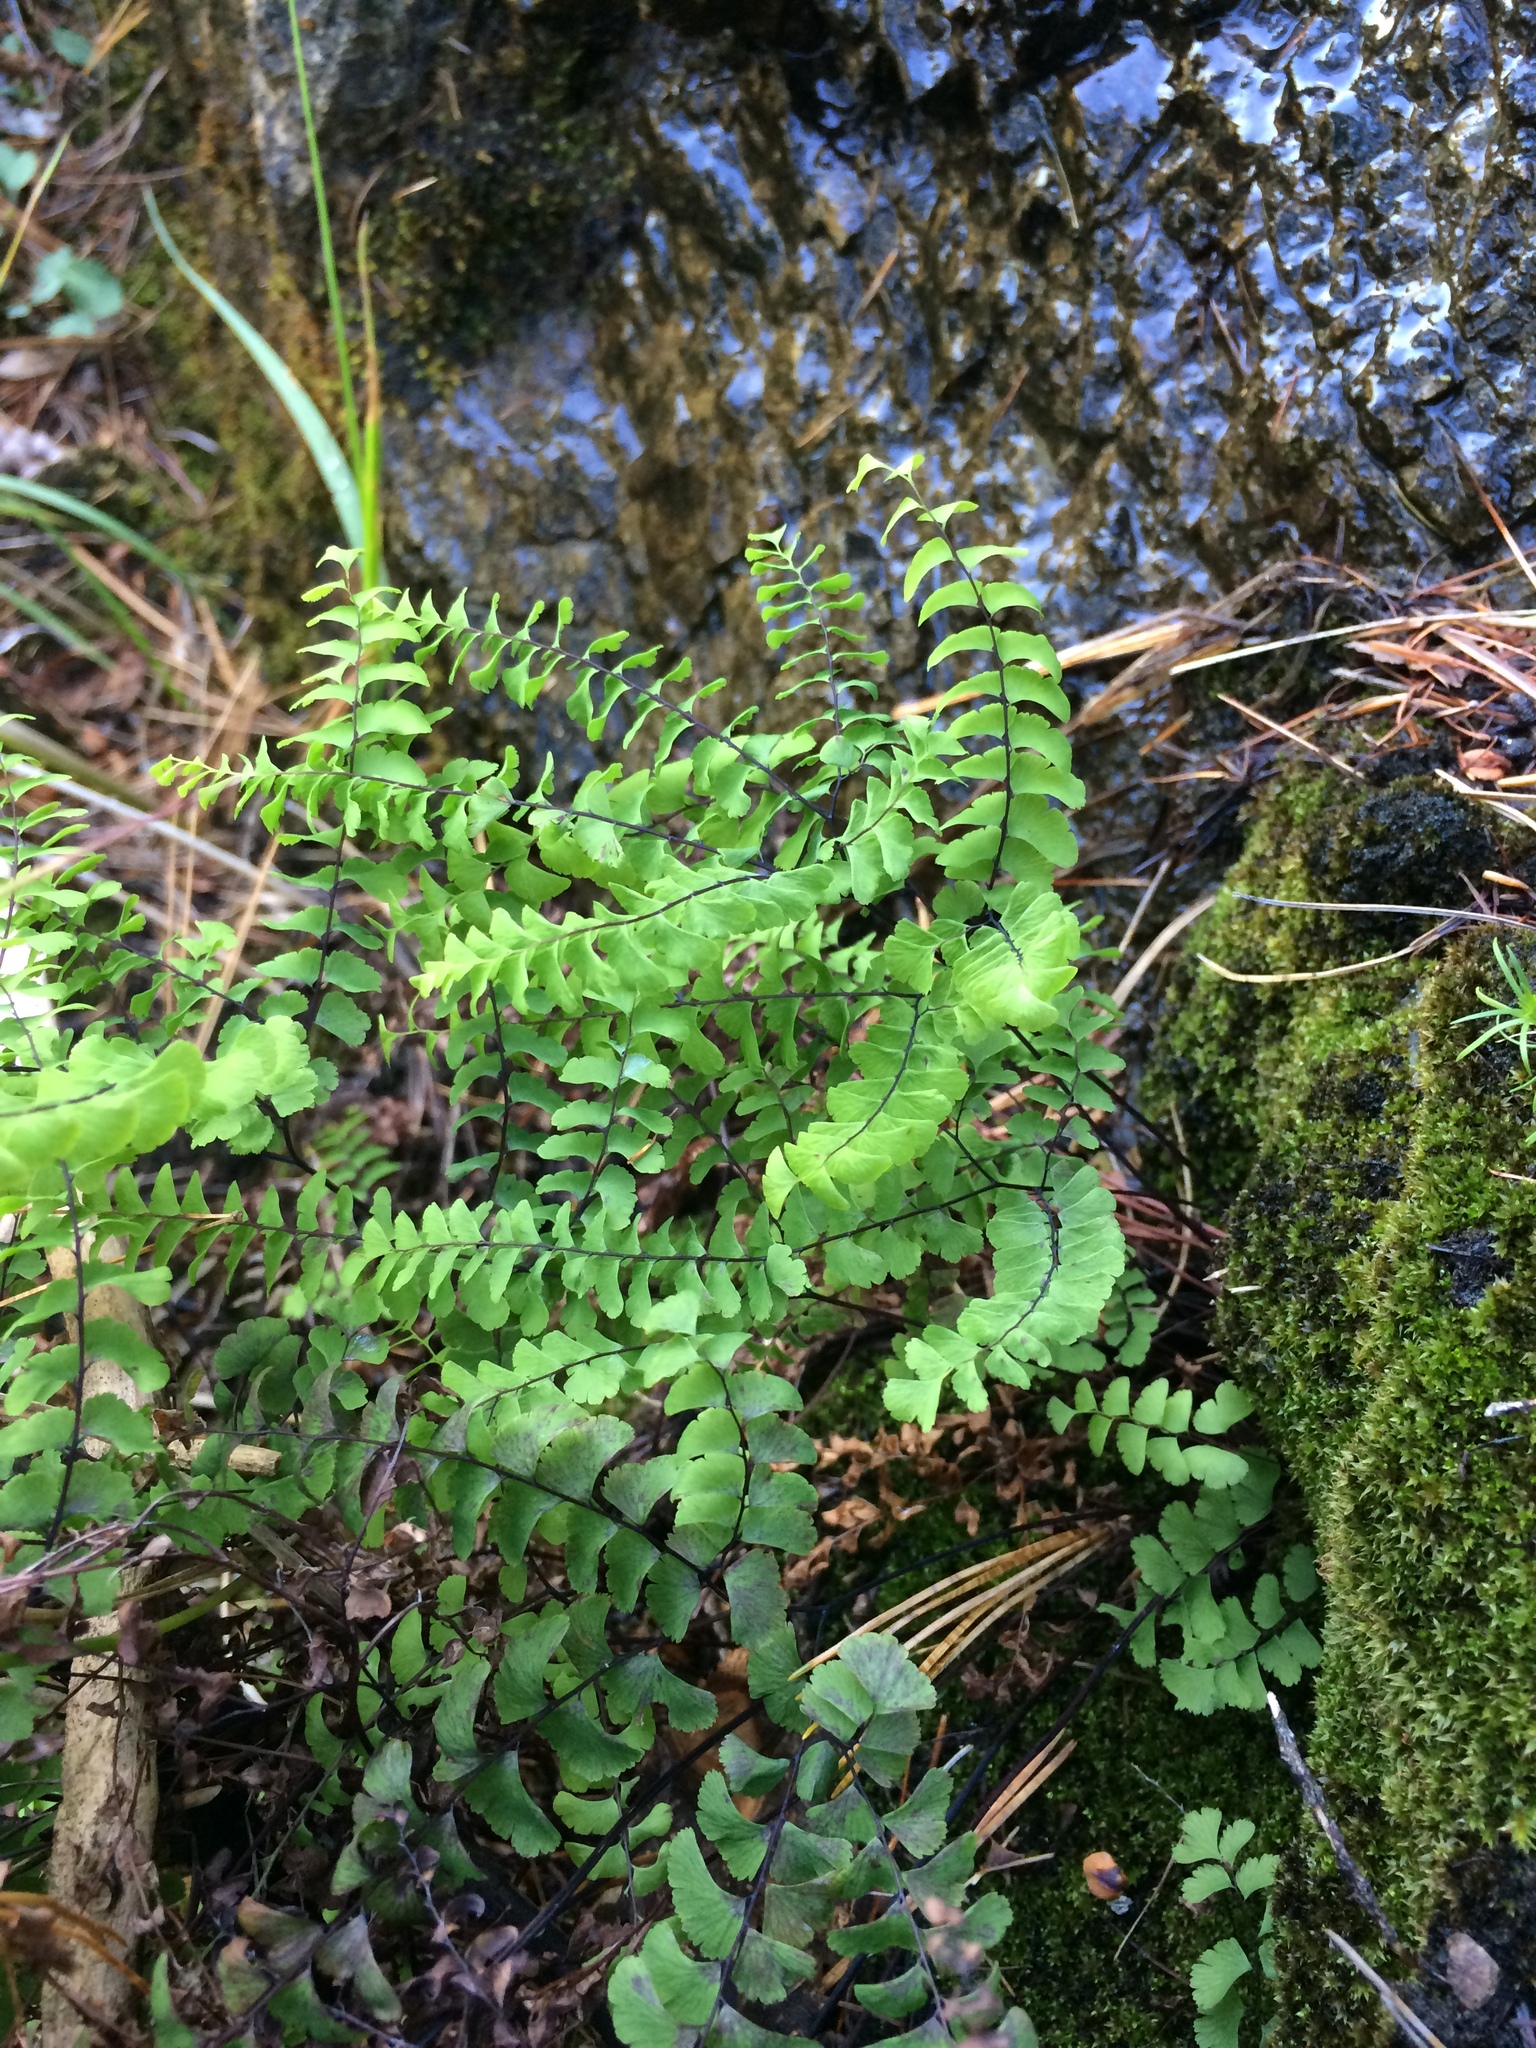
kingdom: Plantae
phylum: Tracheophyta
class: Polypodiopsida
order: Polypodiales
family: Pteridaceae
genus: Adiantum
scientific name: Adiantum aleuticum
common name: Aleutian maidenhair fern
